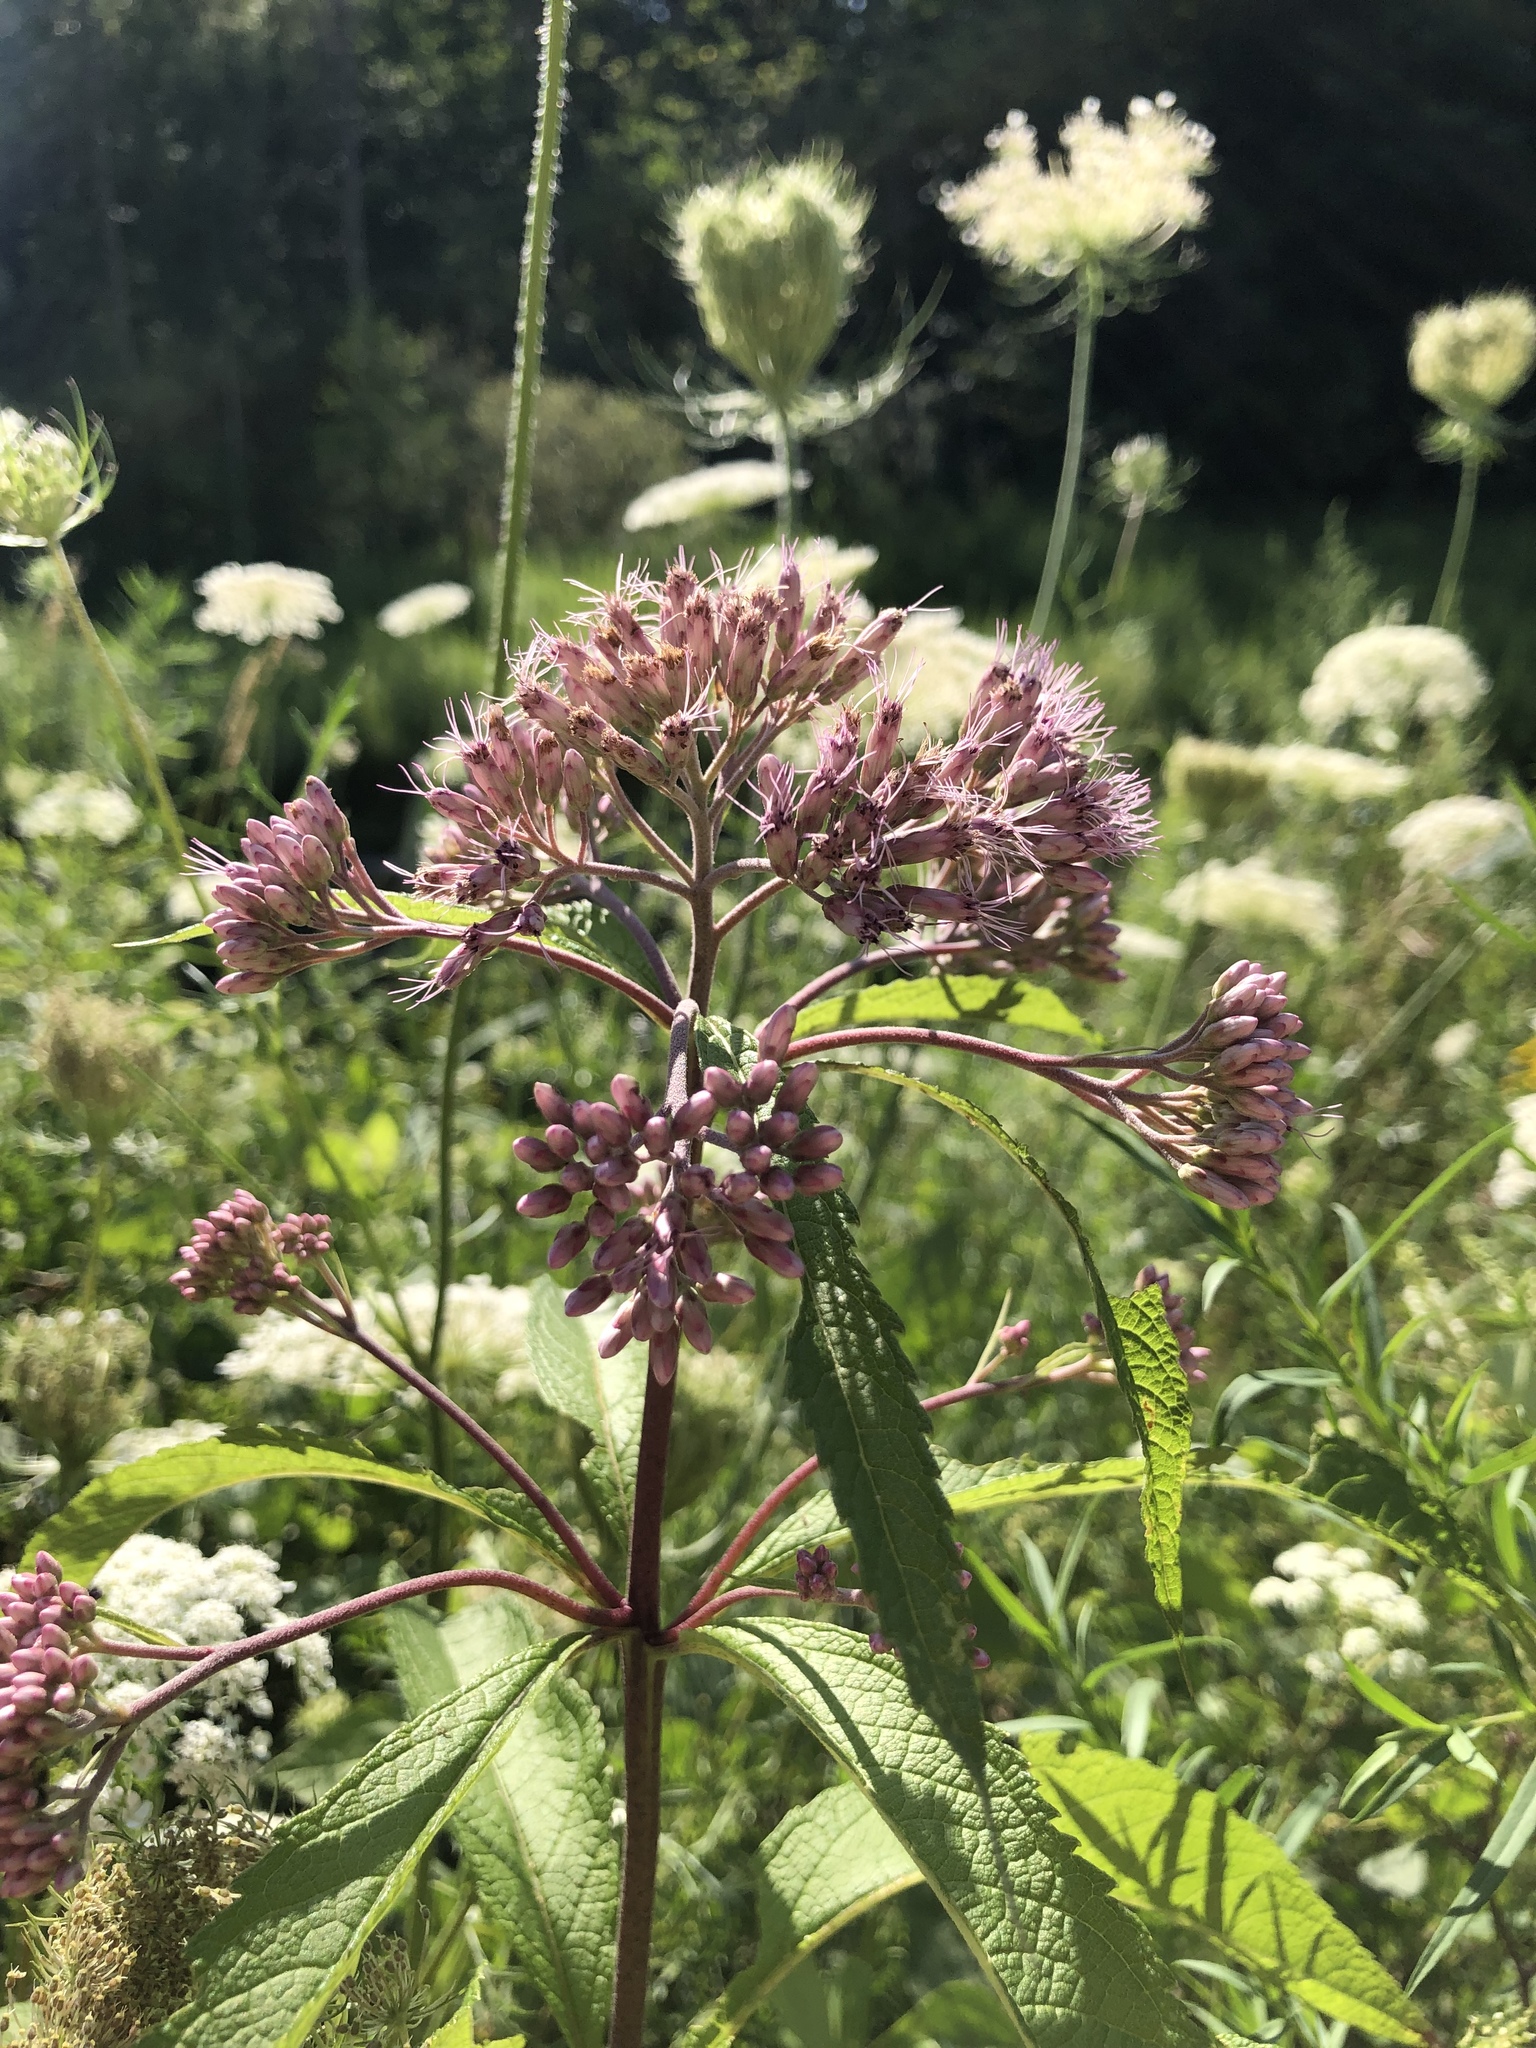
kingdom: Plantae
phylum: Tracheophyta
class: Magnoliopsida
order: Asterales
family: Asteraceae
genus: Eutrochium
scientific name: Eutrochium maculatum
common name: Spotted joe pye weed
